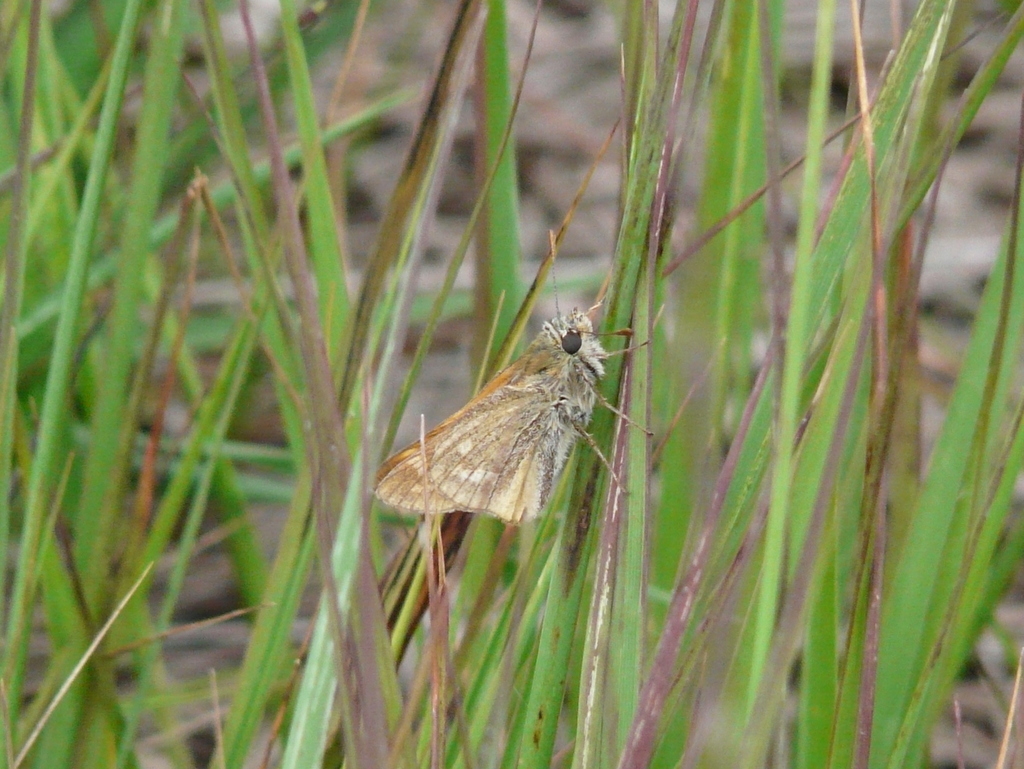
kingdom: Animalia
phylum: Arthropoda
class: Insecta
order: Lepidoptera
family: Hesperiidae
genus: Ochlodes
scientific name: Ochlodes venata
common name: Large skipper
